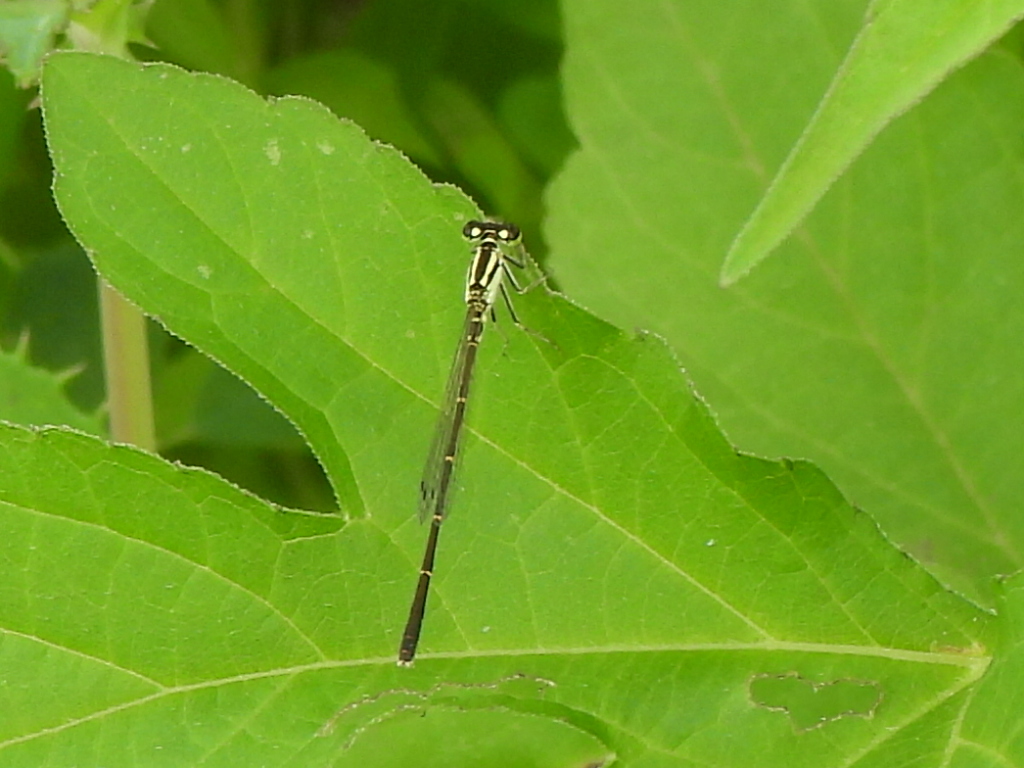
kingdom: Animalia
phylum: Arthropoda
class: Insecta
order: Odonata
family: Coenagrionidae
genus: Ischnura
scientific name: Ischnura posita
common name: Fragile forktail
